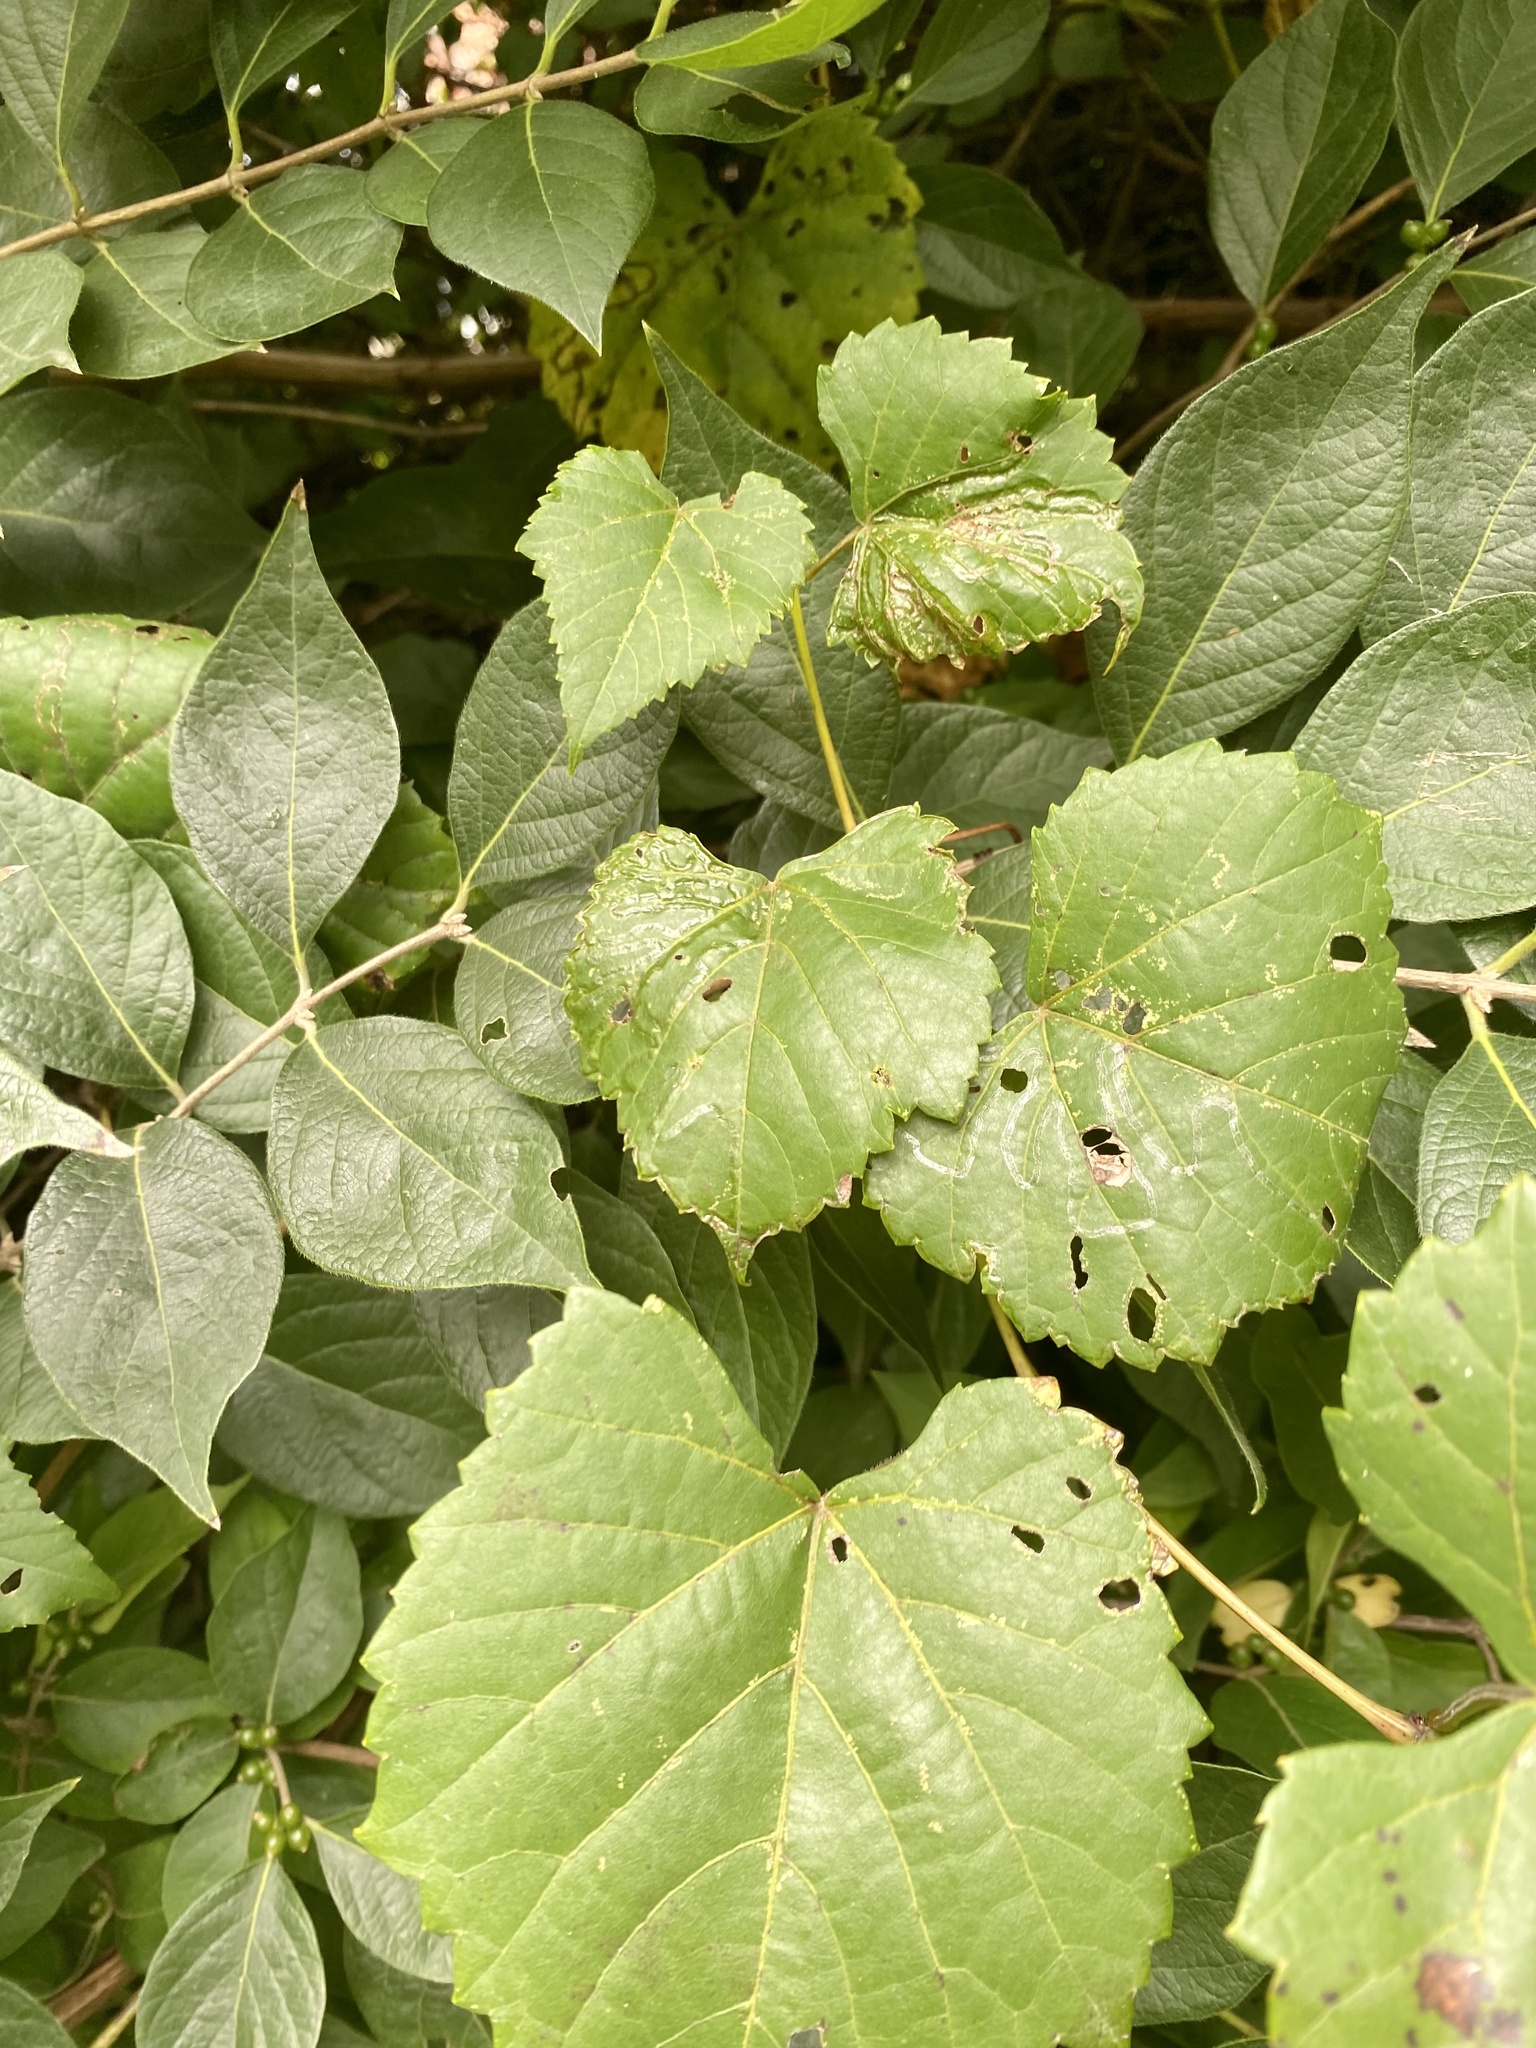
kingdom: Animalia
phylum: Arthropoda
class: Insecta
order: Lepidoptera
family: Gracillariidae
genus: Phyllocnistis
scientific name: Phyllocnistis vitegenella
